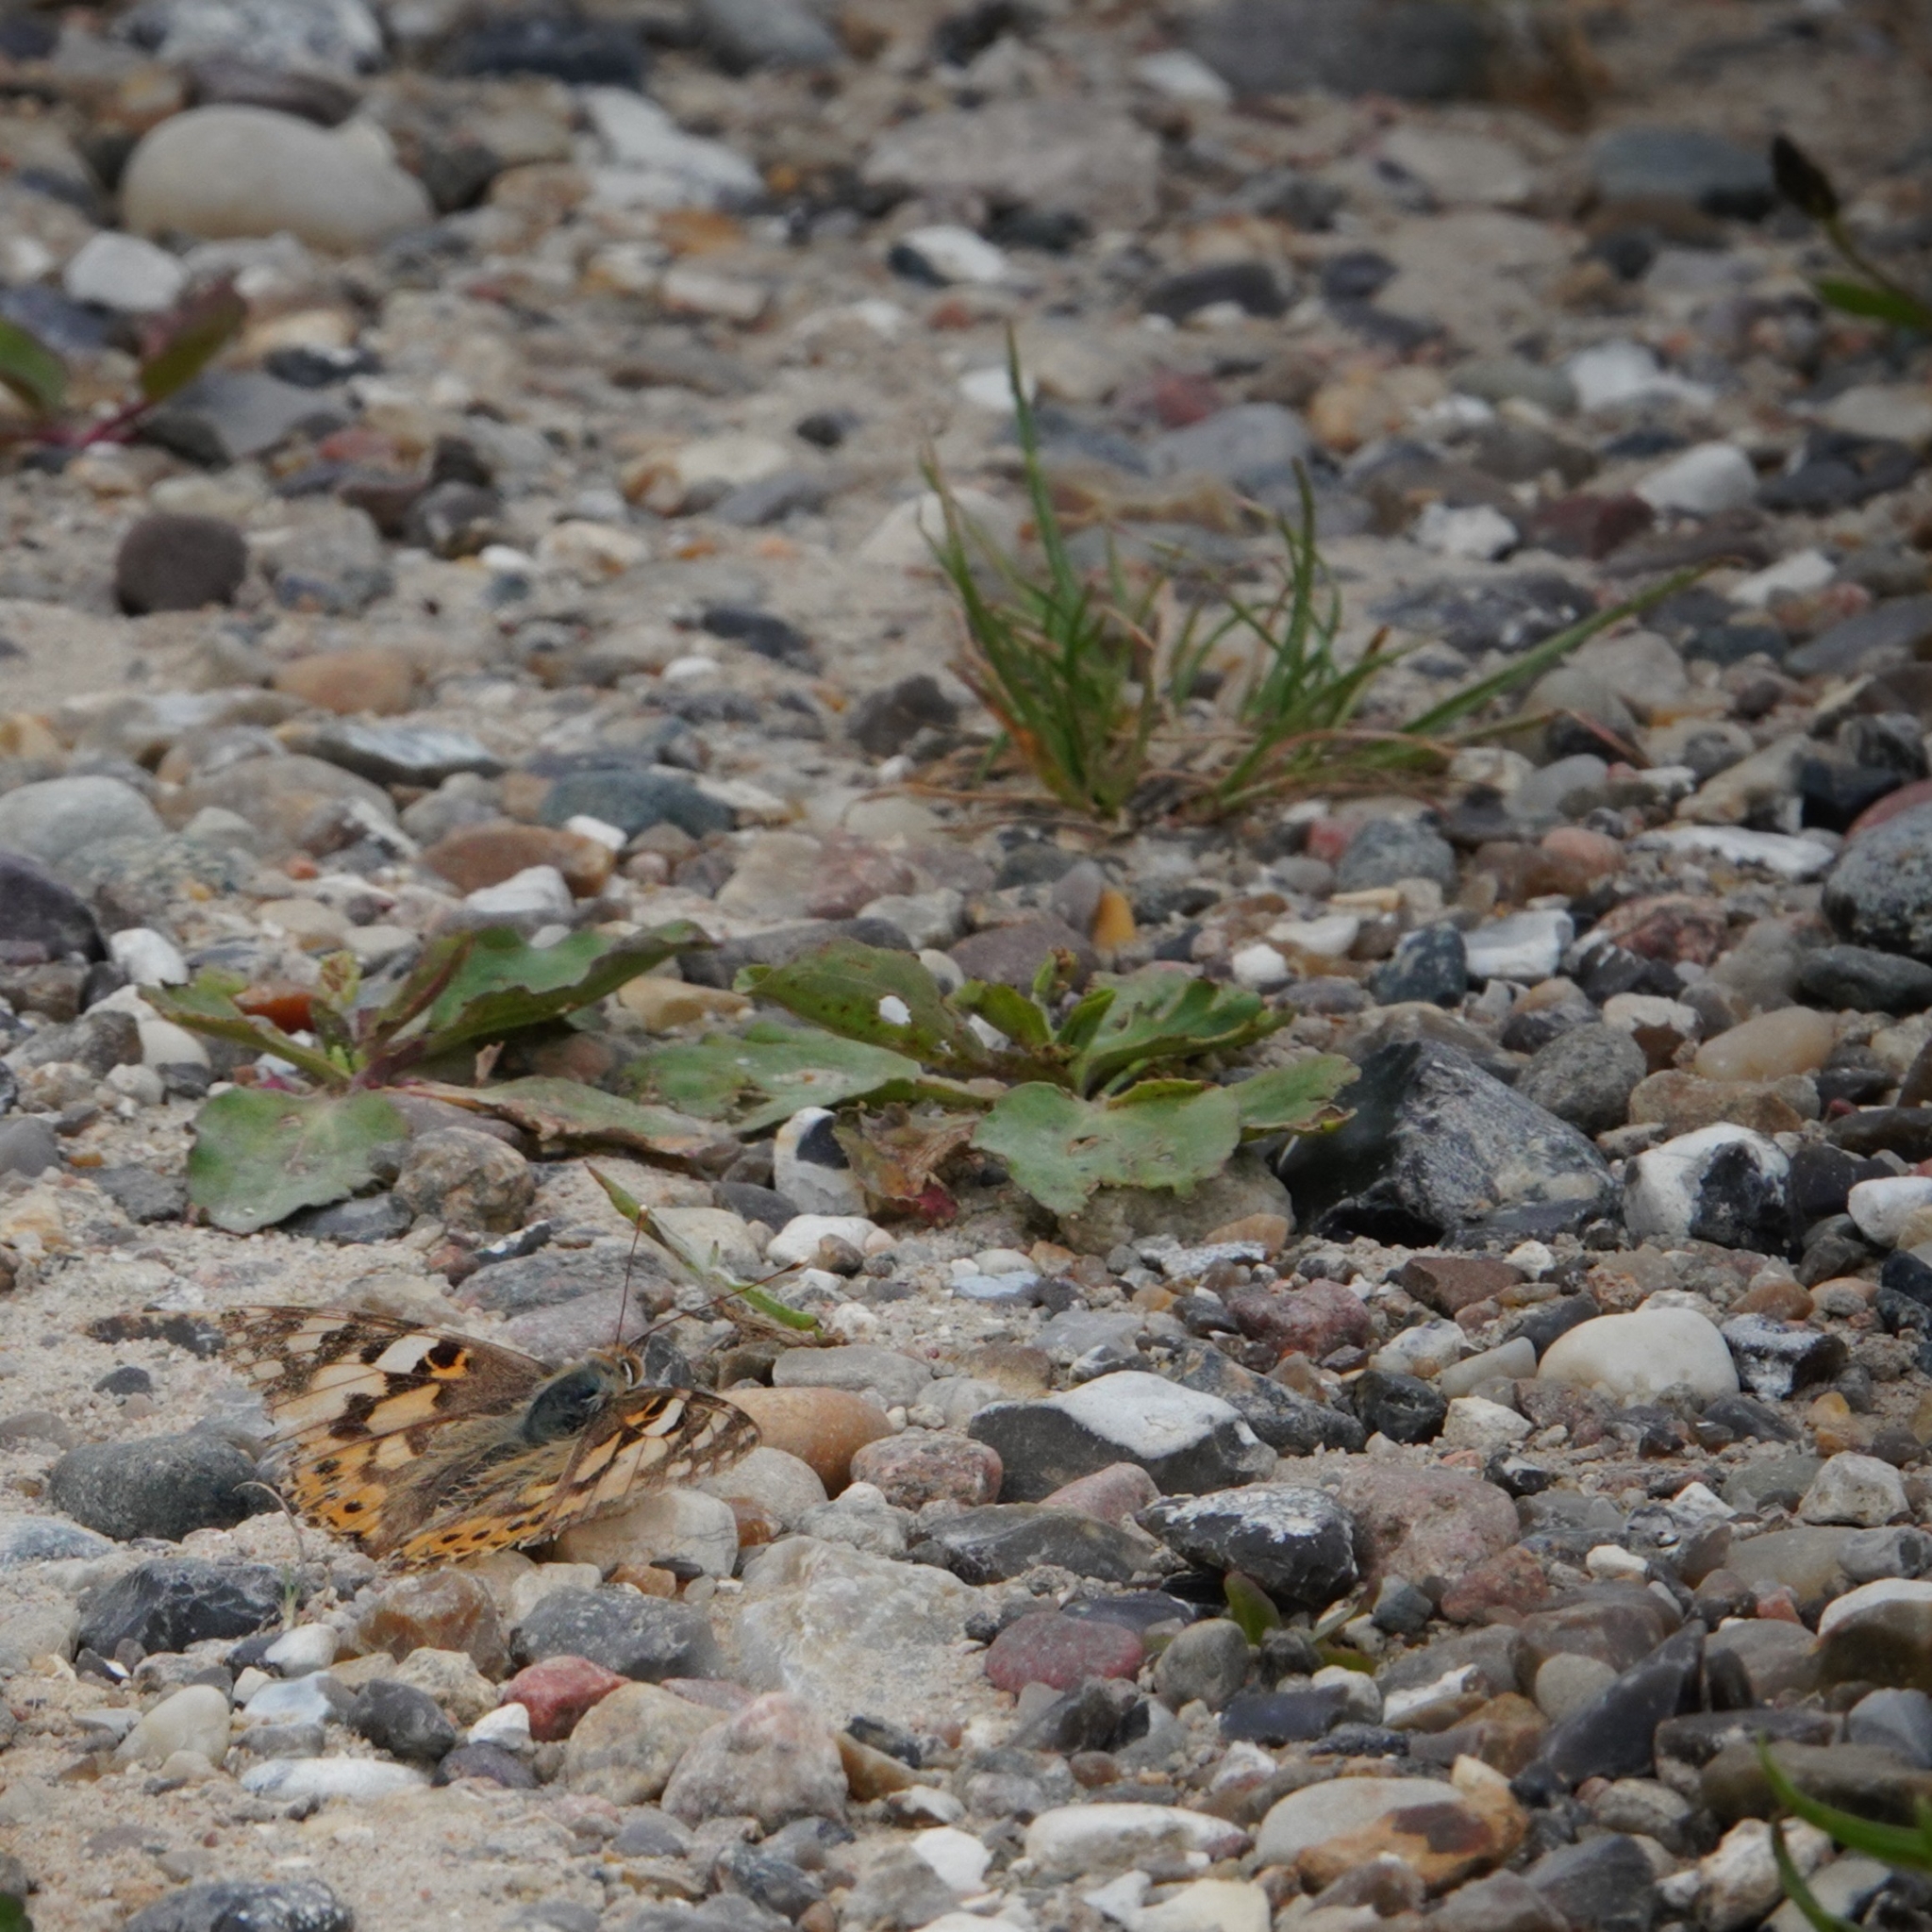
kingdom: Animalia
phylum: Arthropoda
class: Insecta
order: Lepidoptera
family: Nymphalidae
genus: Vanessa
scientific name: Vanessa cardui
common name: Painted lady
